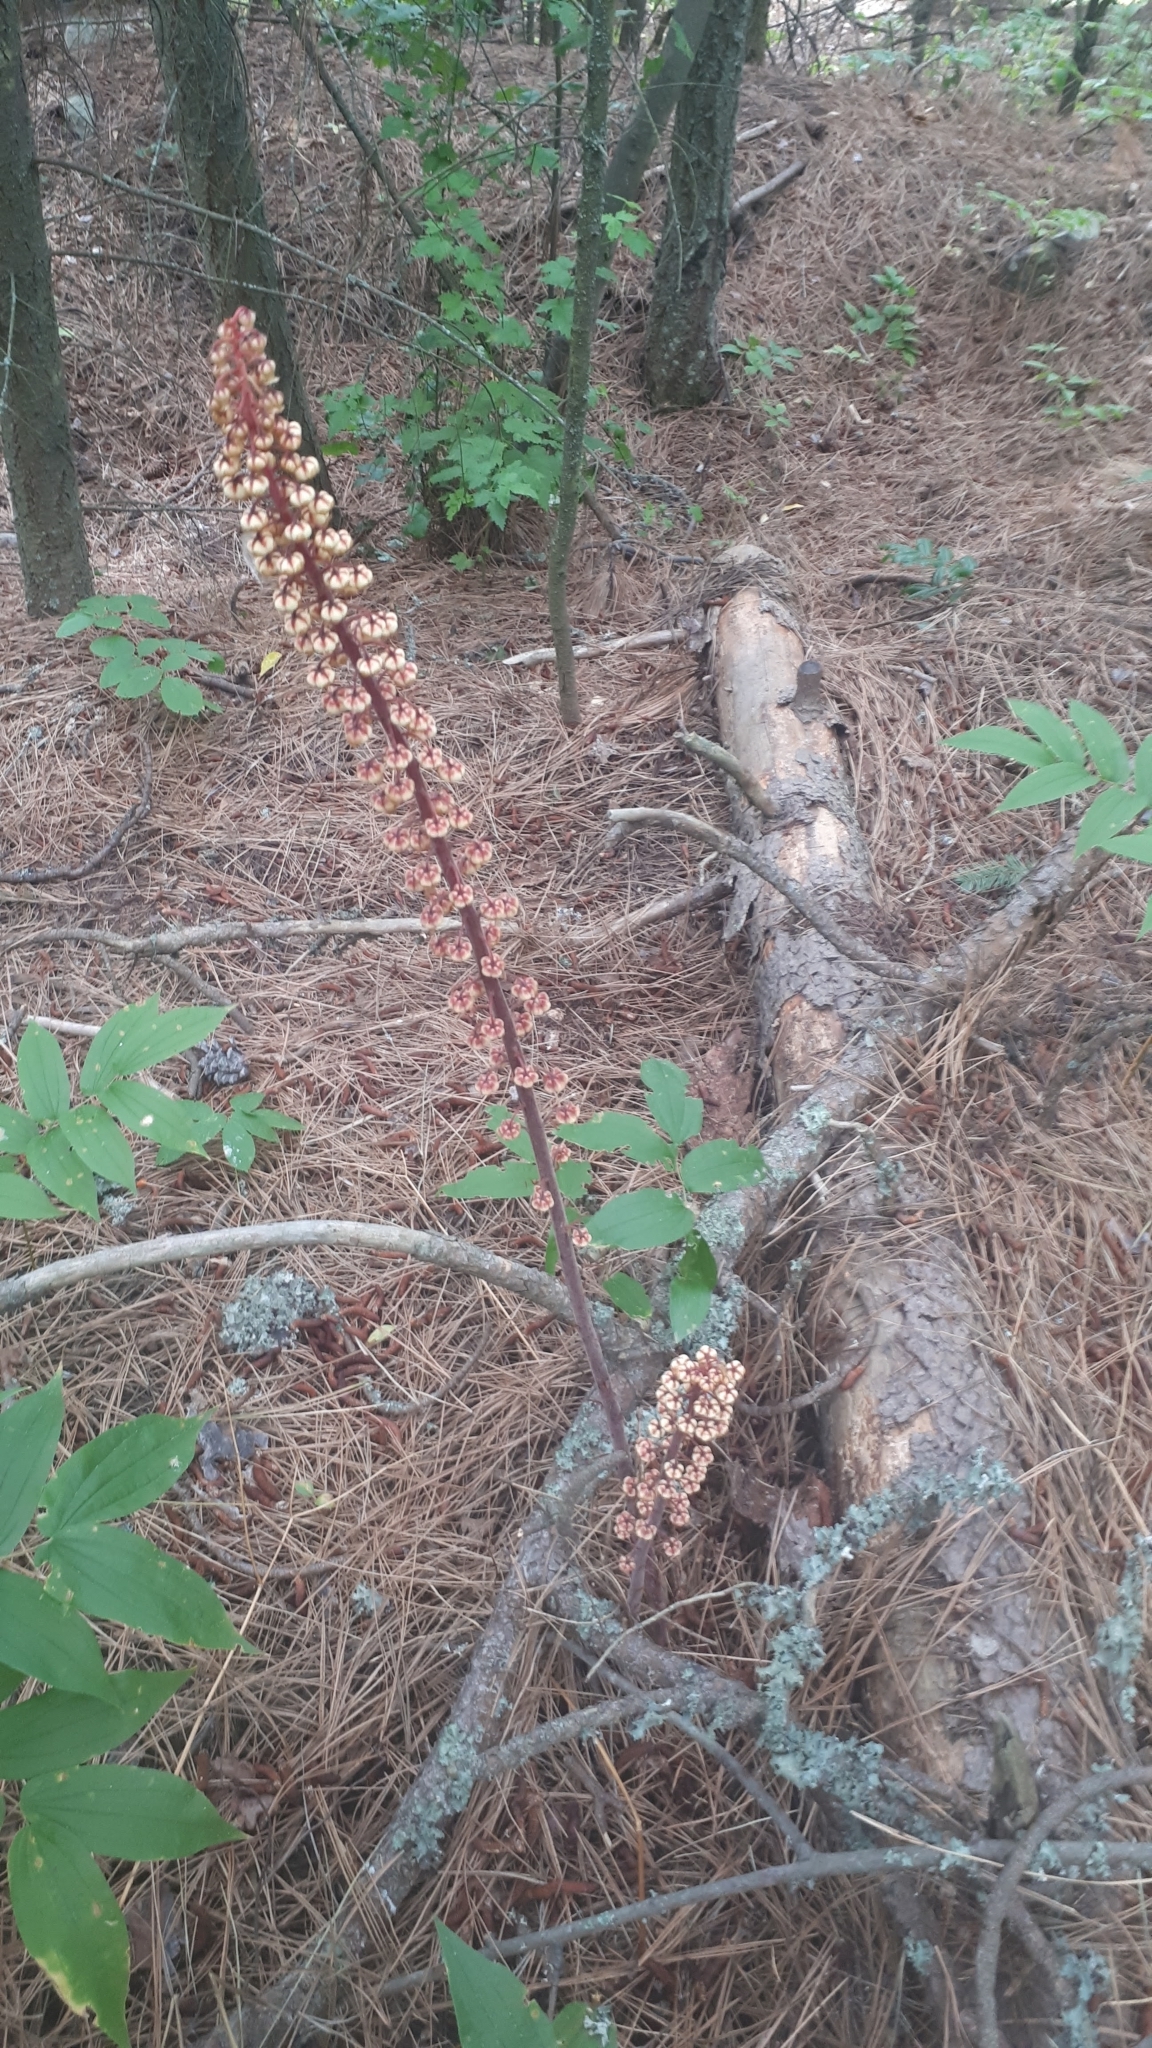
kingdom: Plantae
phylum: Tracheophyta
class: Magnoliopsida
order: Ericales
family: Ericaceae
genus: Pterospora
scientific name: Pterospora andromedea
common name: Giant bird's-nest
